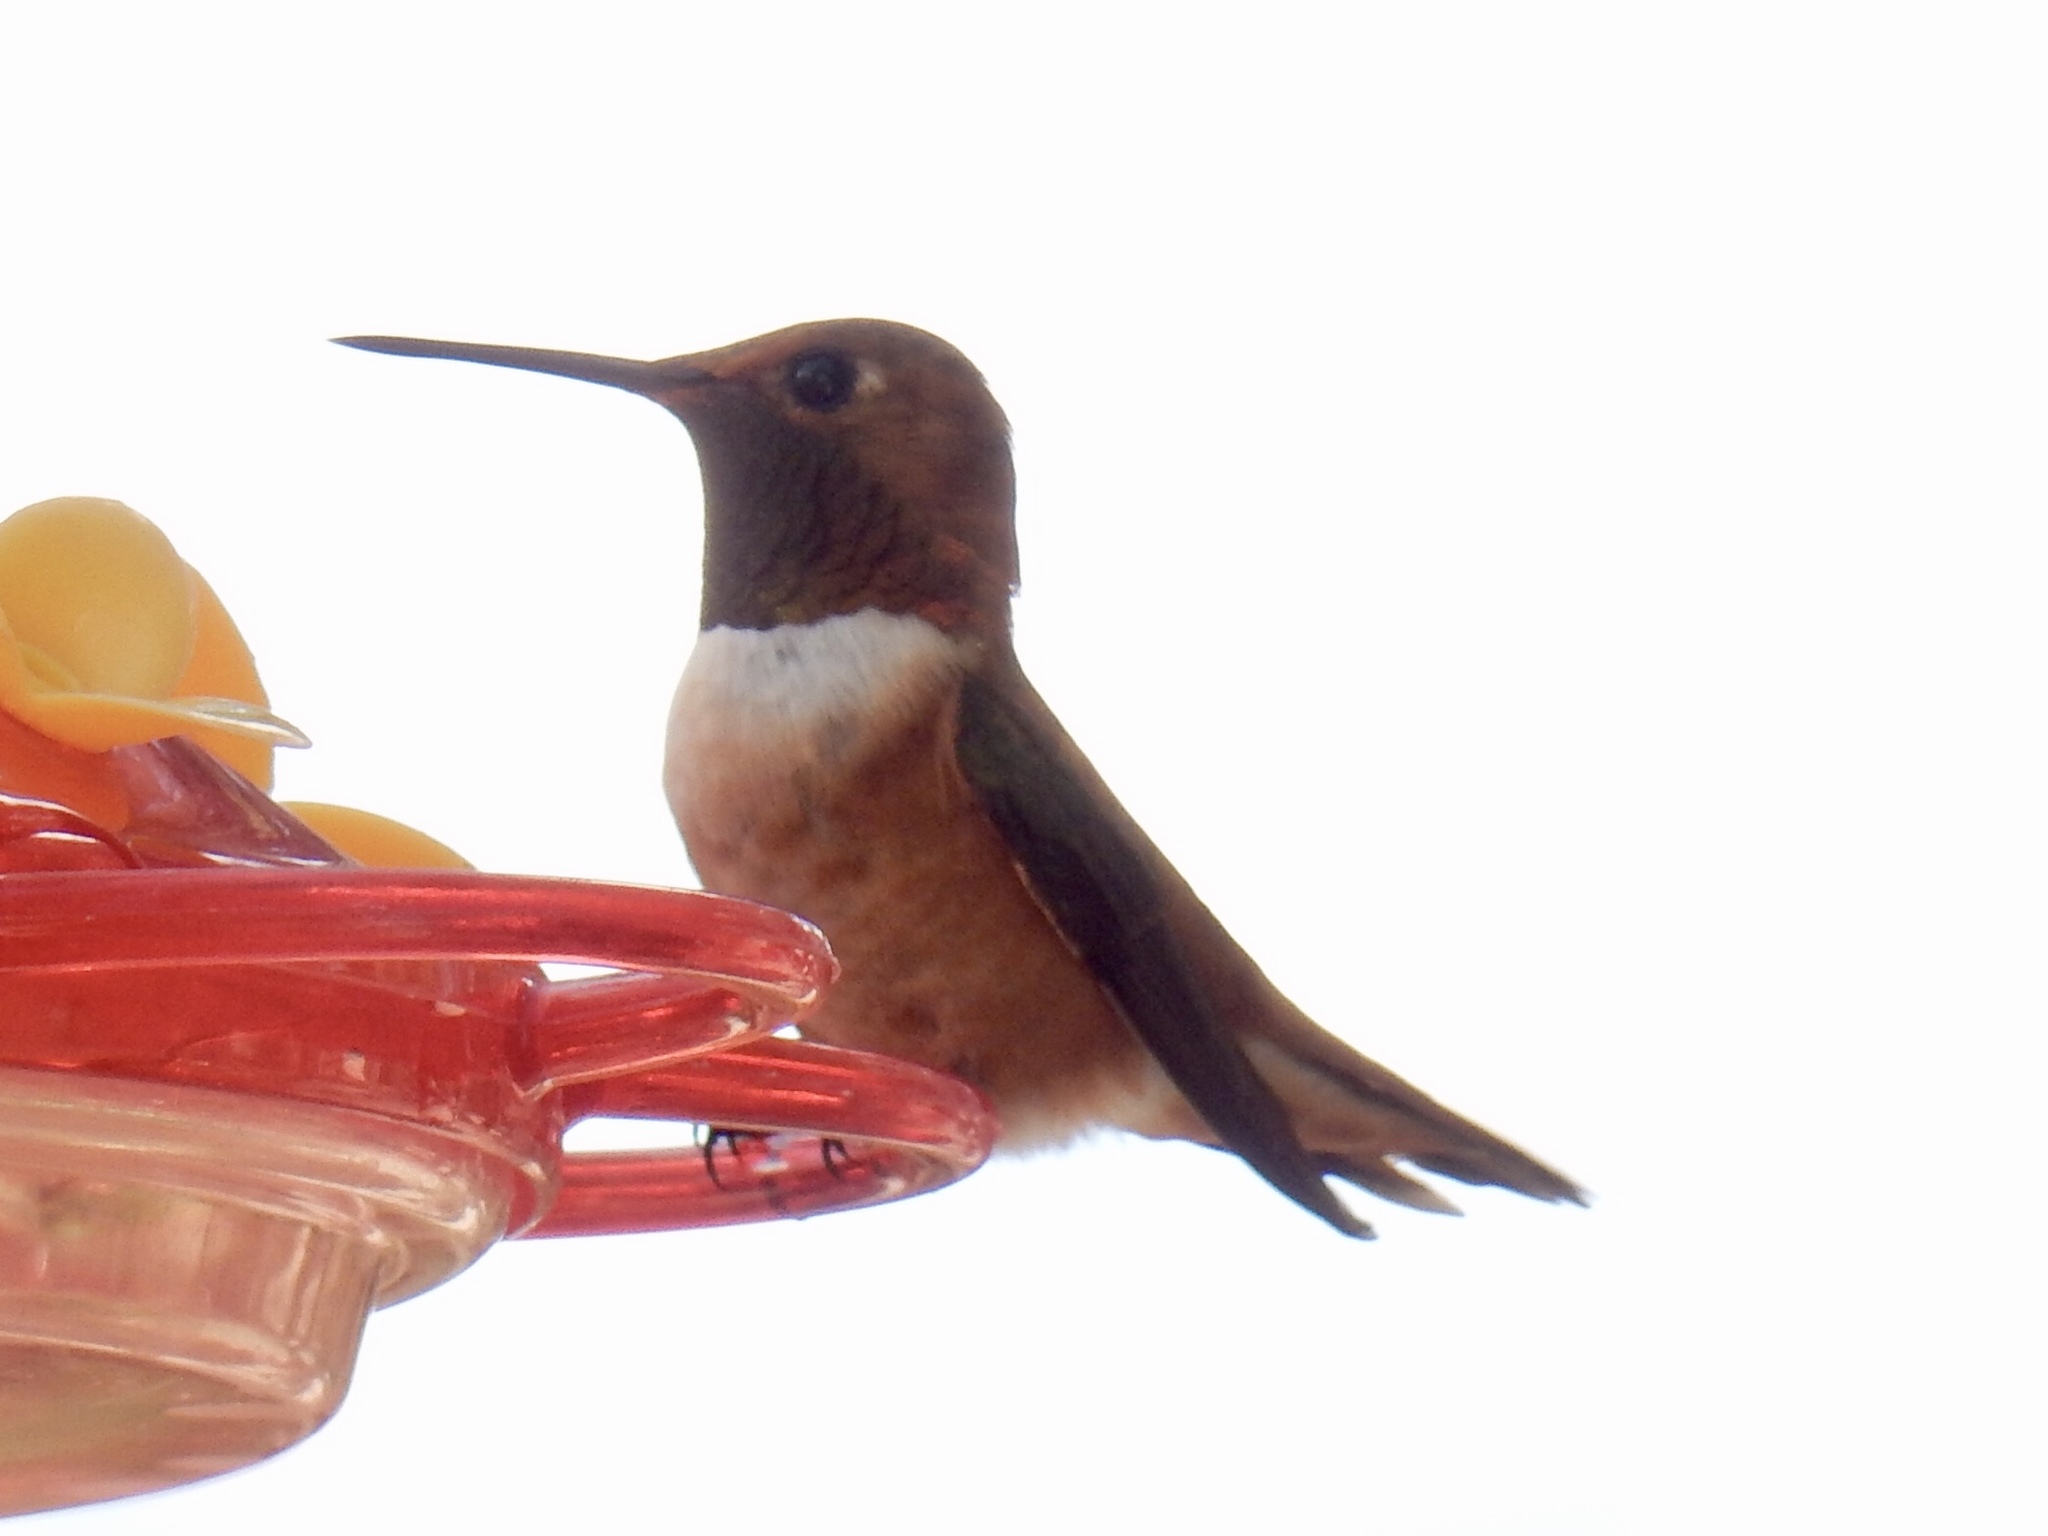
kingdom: Animalia
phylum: Chordata
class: Aves
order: Apodiformes
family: Trochilidae
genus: Selasphorus
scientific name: Selasphorus rufus
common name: Rufous hummingbird
